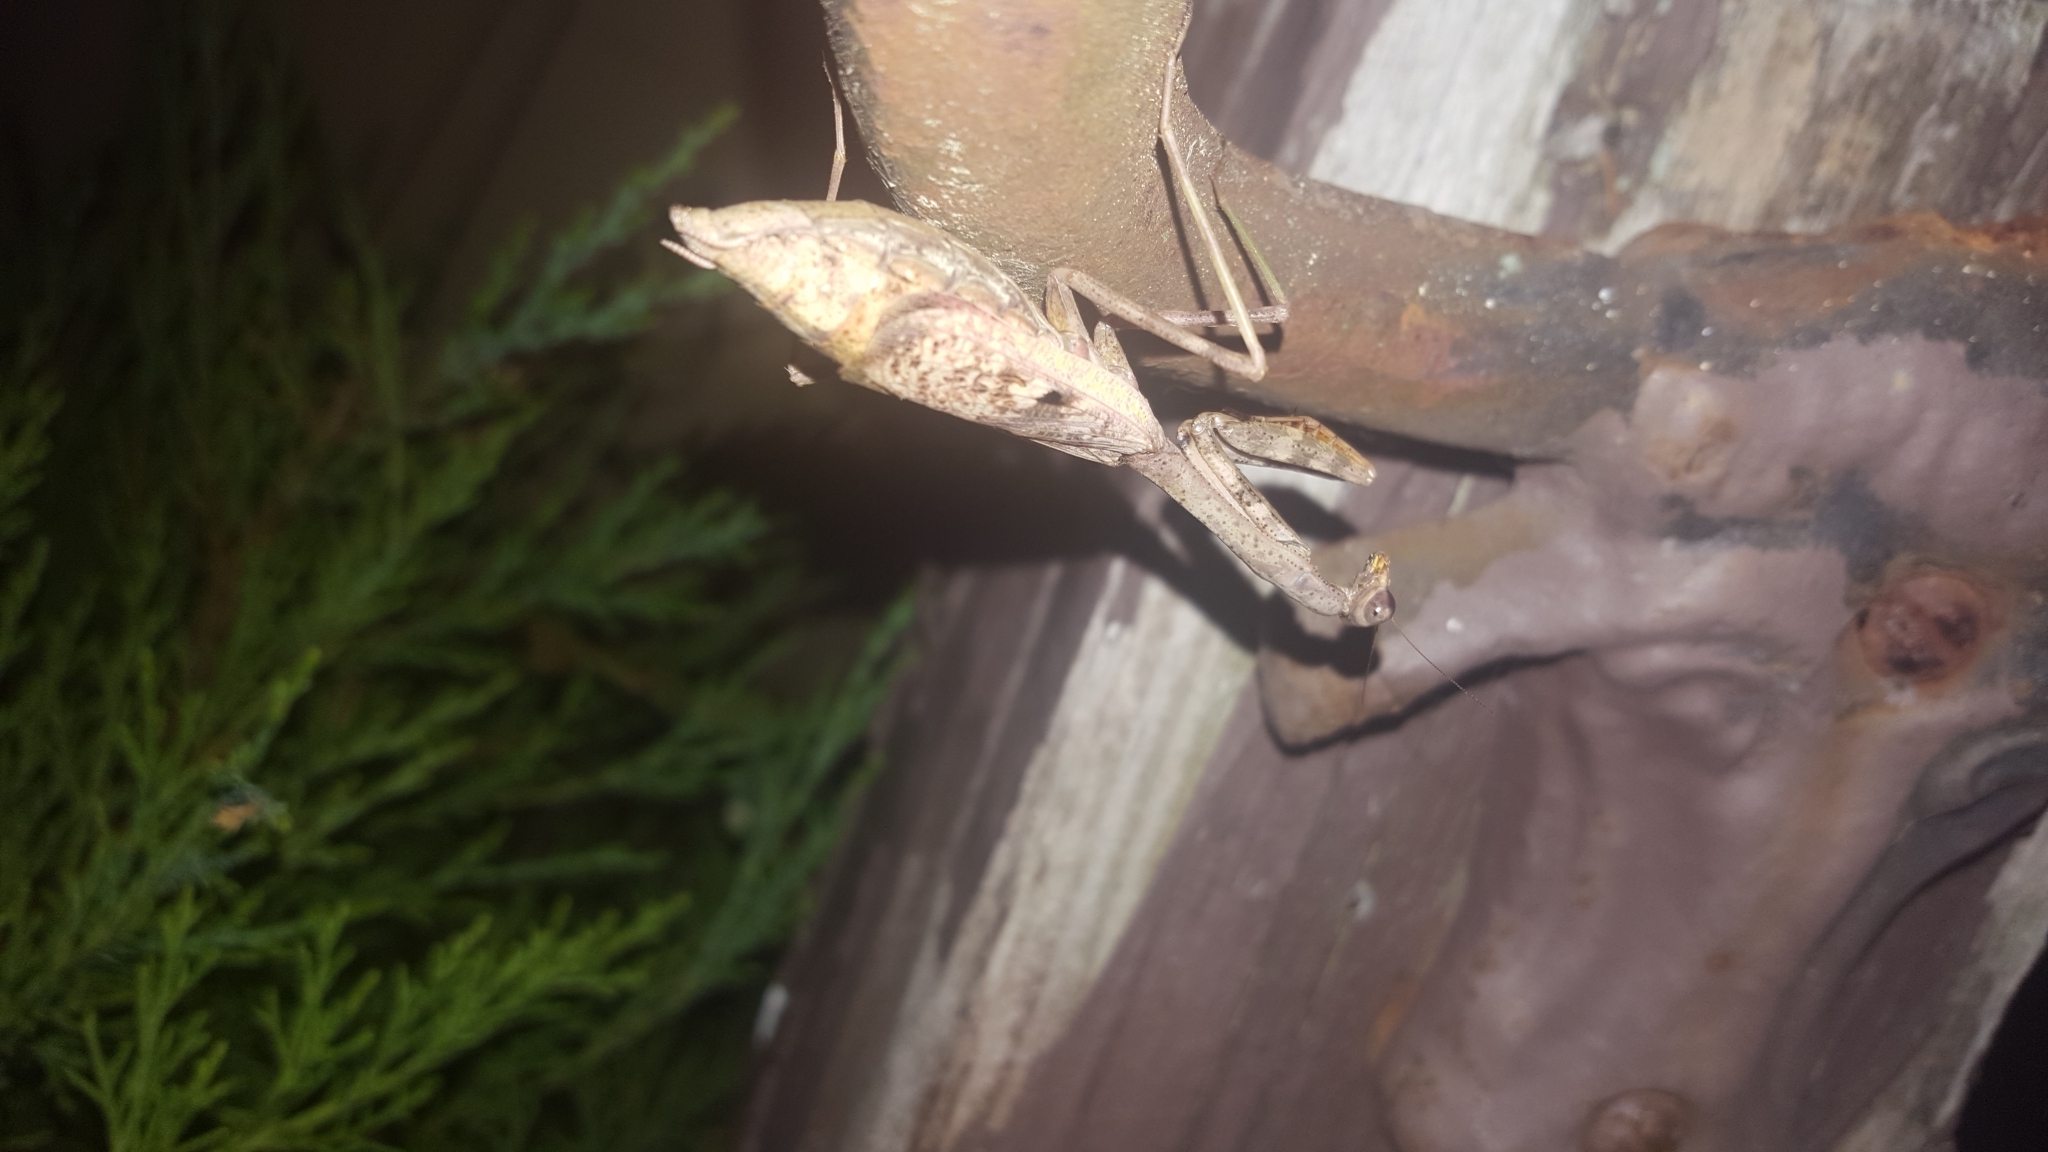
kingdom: Animalia
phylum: Arthropoda
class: Insecta
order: Mantodea
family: Mantidae
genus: Stagmomantis
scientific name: Stagmomantis carolina
